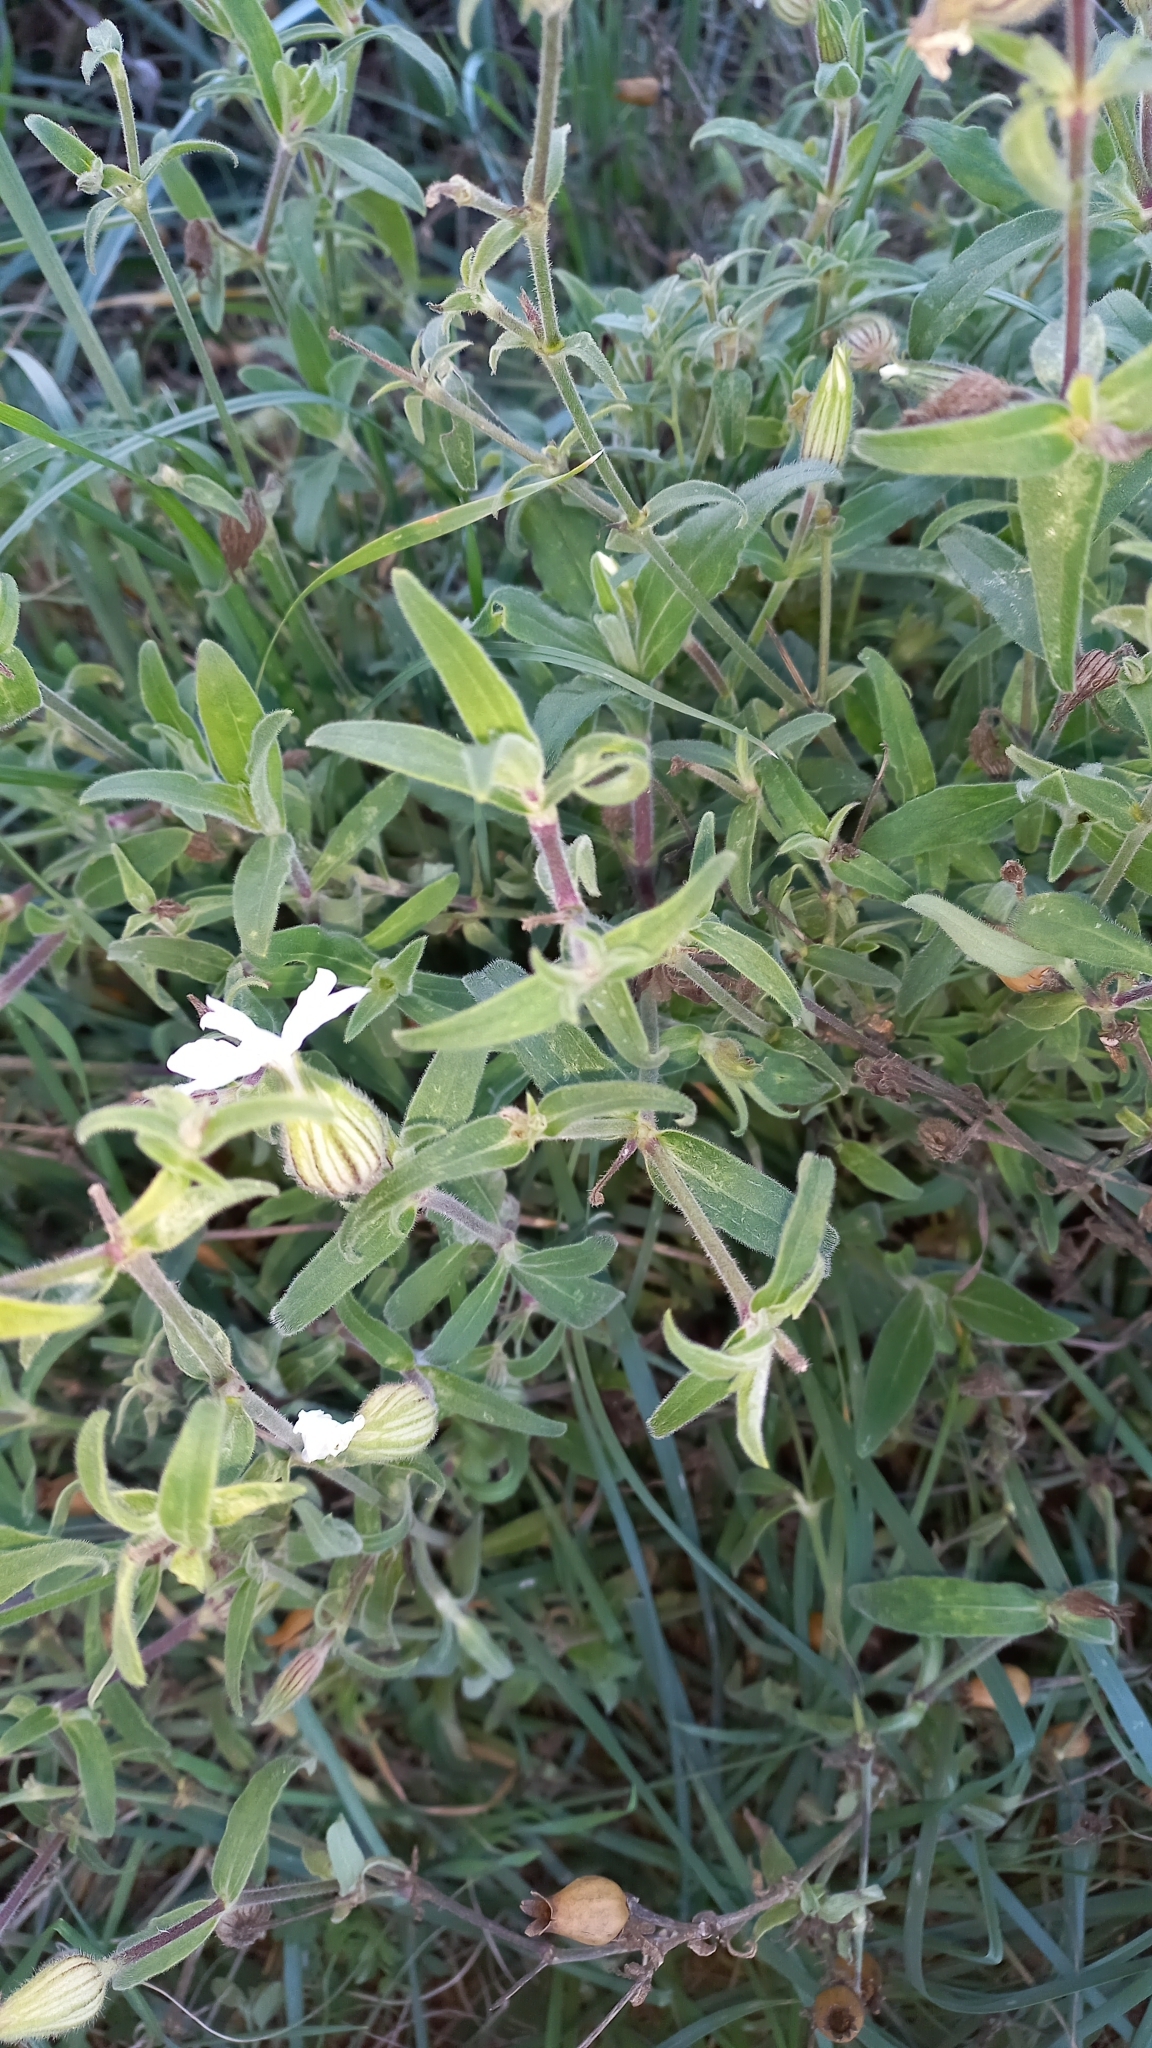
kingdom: Plantae
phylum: Tracheophyta
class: Magnoliopsida
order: Caryophyllales
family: Caryophyllaceae
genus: Silene
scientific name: Silene latifolia
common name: White campion
